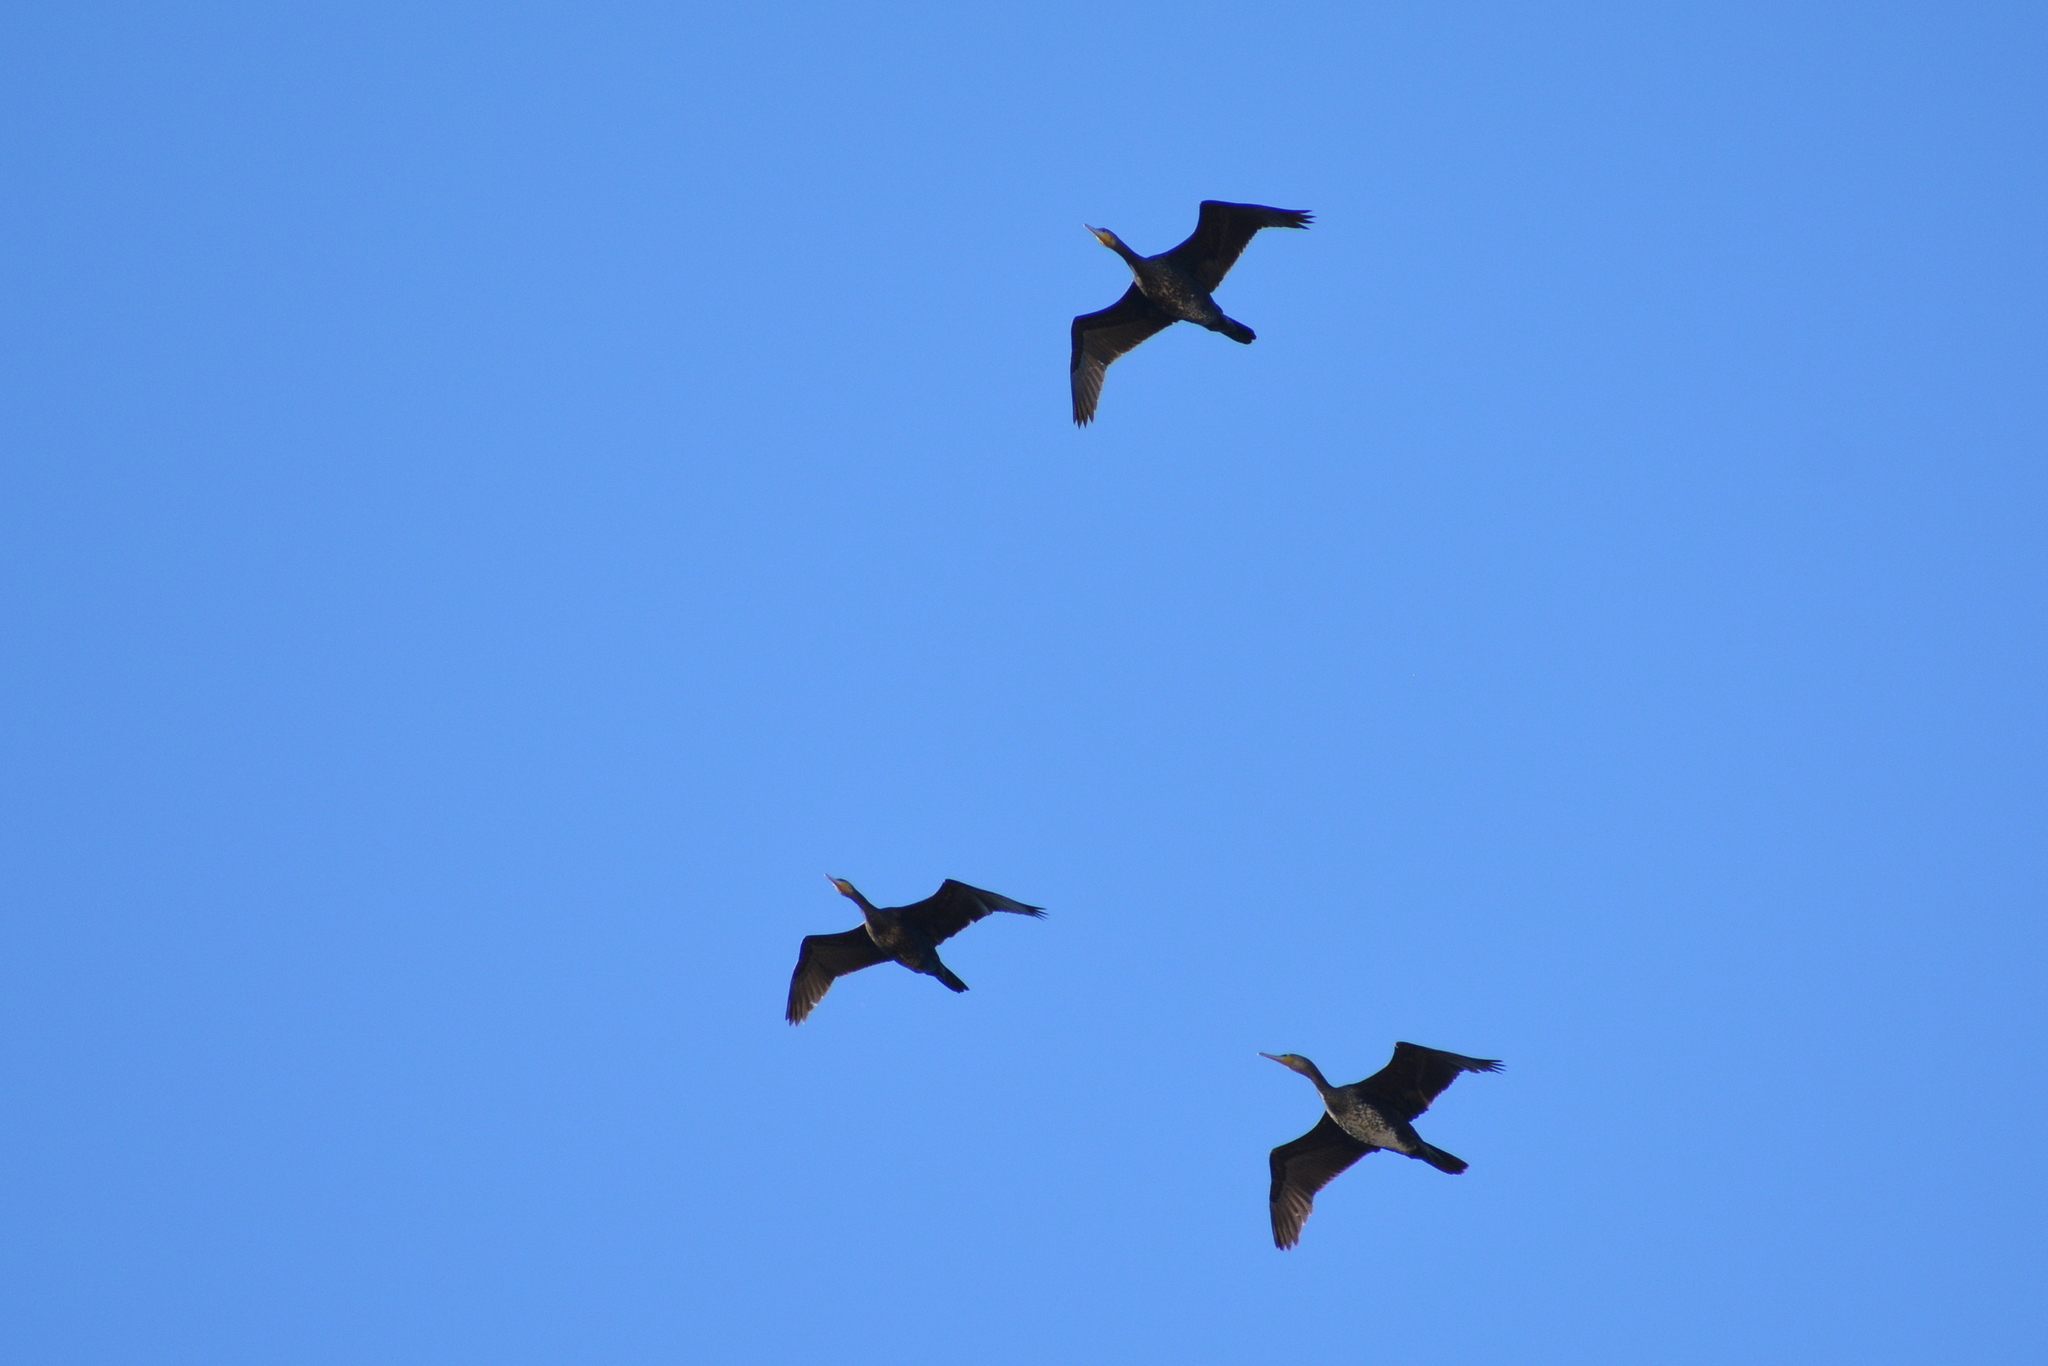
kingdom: Animalia
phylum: Chordata
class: Aves
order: Suliformes
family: Phalacrocoracidae
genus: Phalacrocorax
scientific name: Phalacrocorax carbo
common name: Great cormorant
